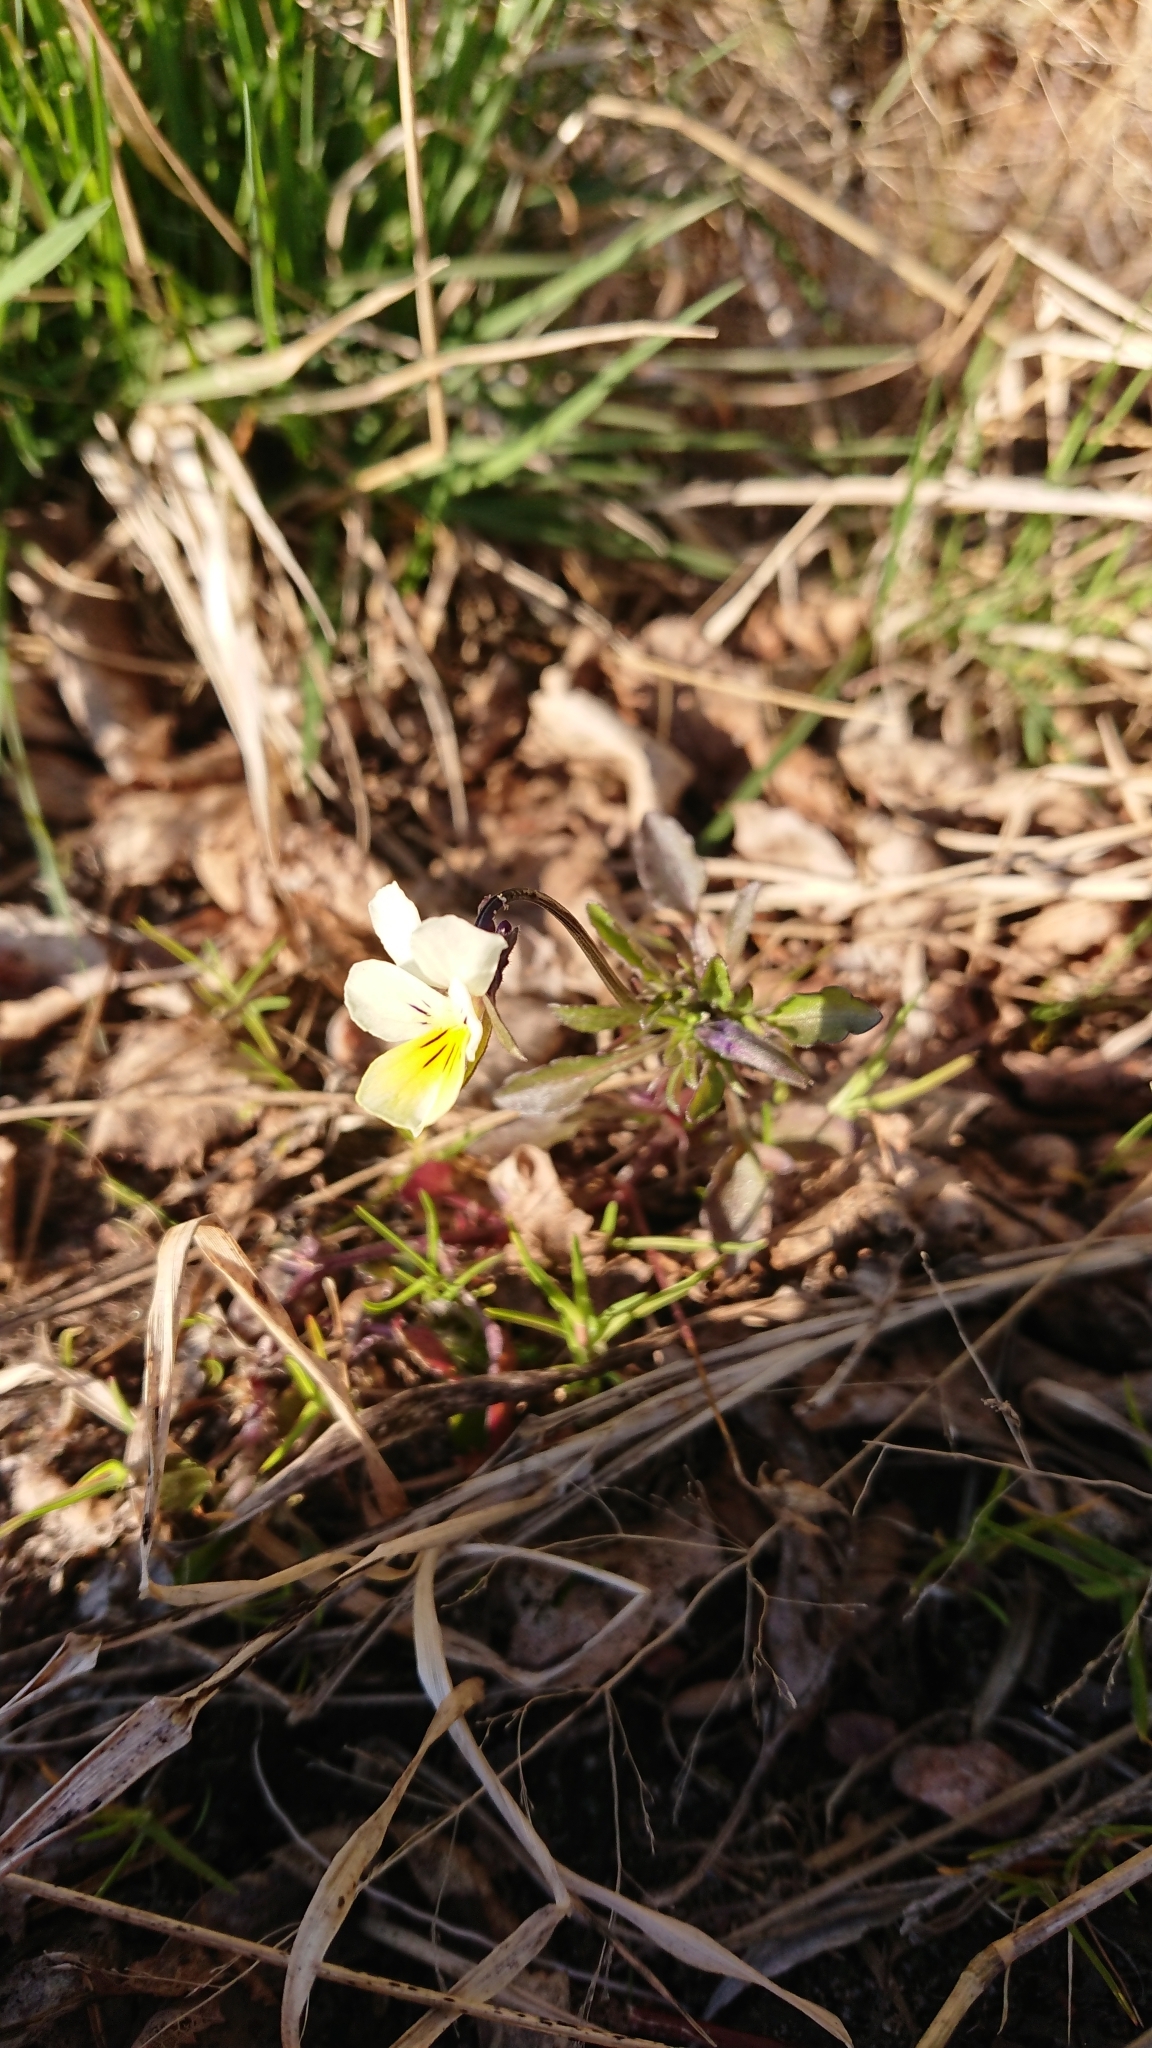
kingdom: Plantae
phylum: Tracheophyta
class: Magnoliopsida
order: Malpighiales
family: Violaceae
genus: Viola
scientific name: Viola arvensis
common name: Field pansy
